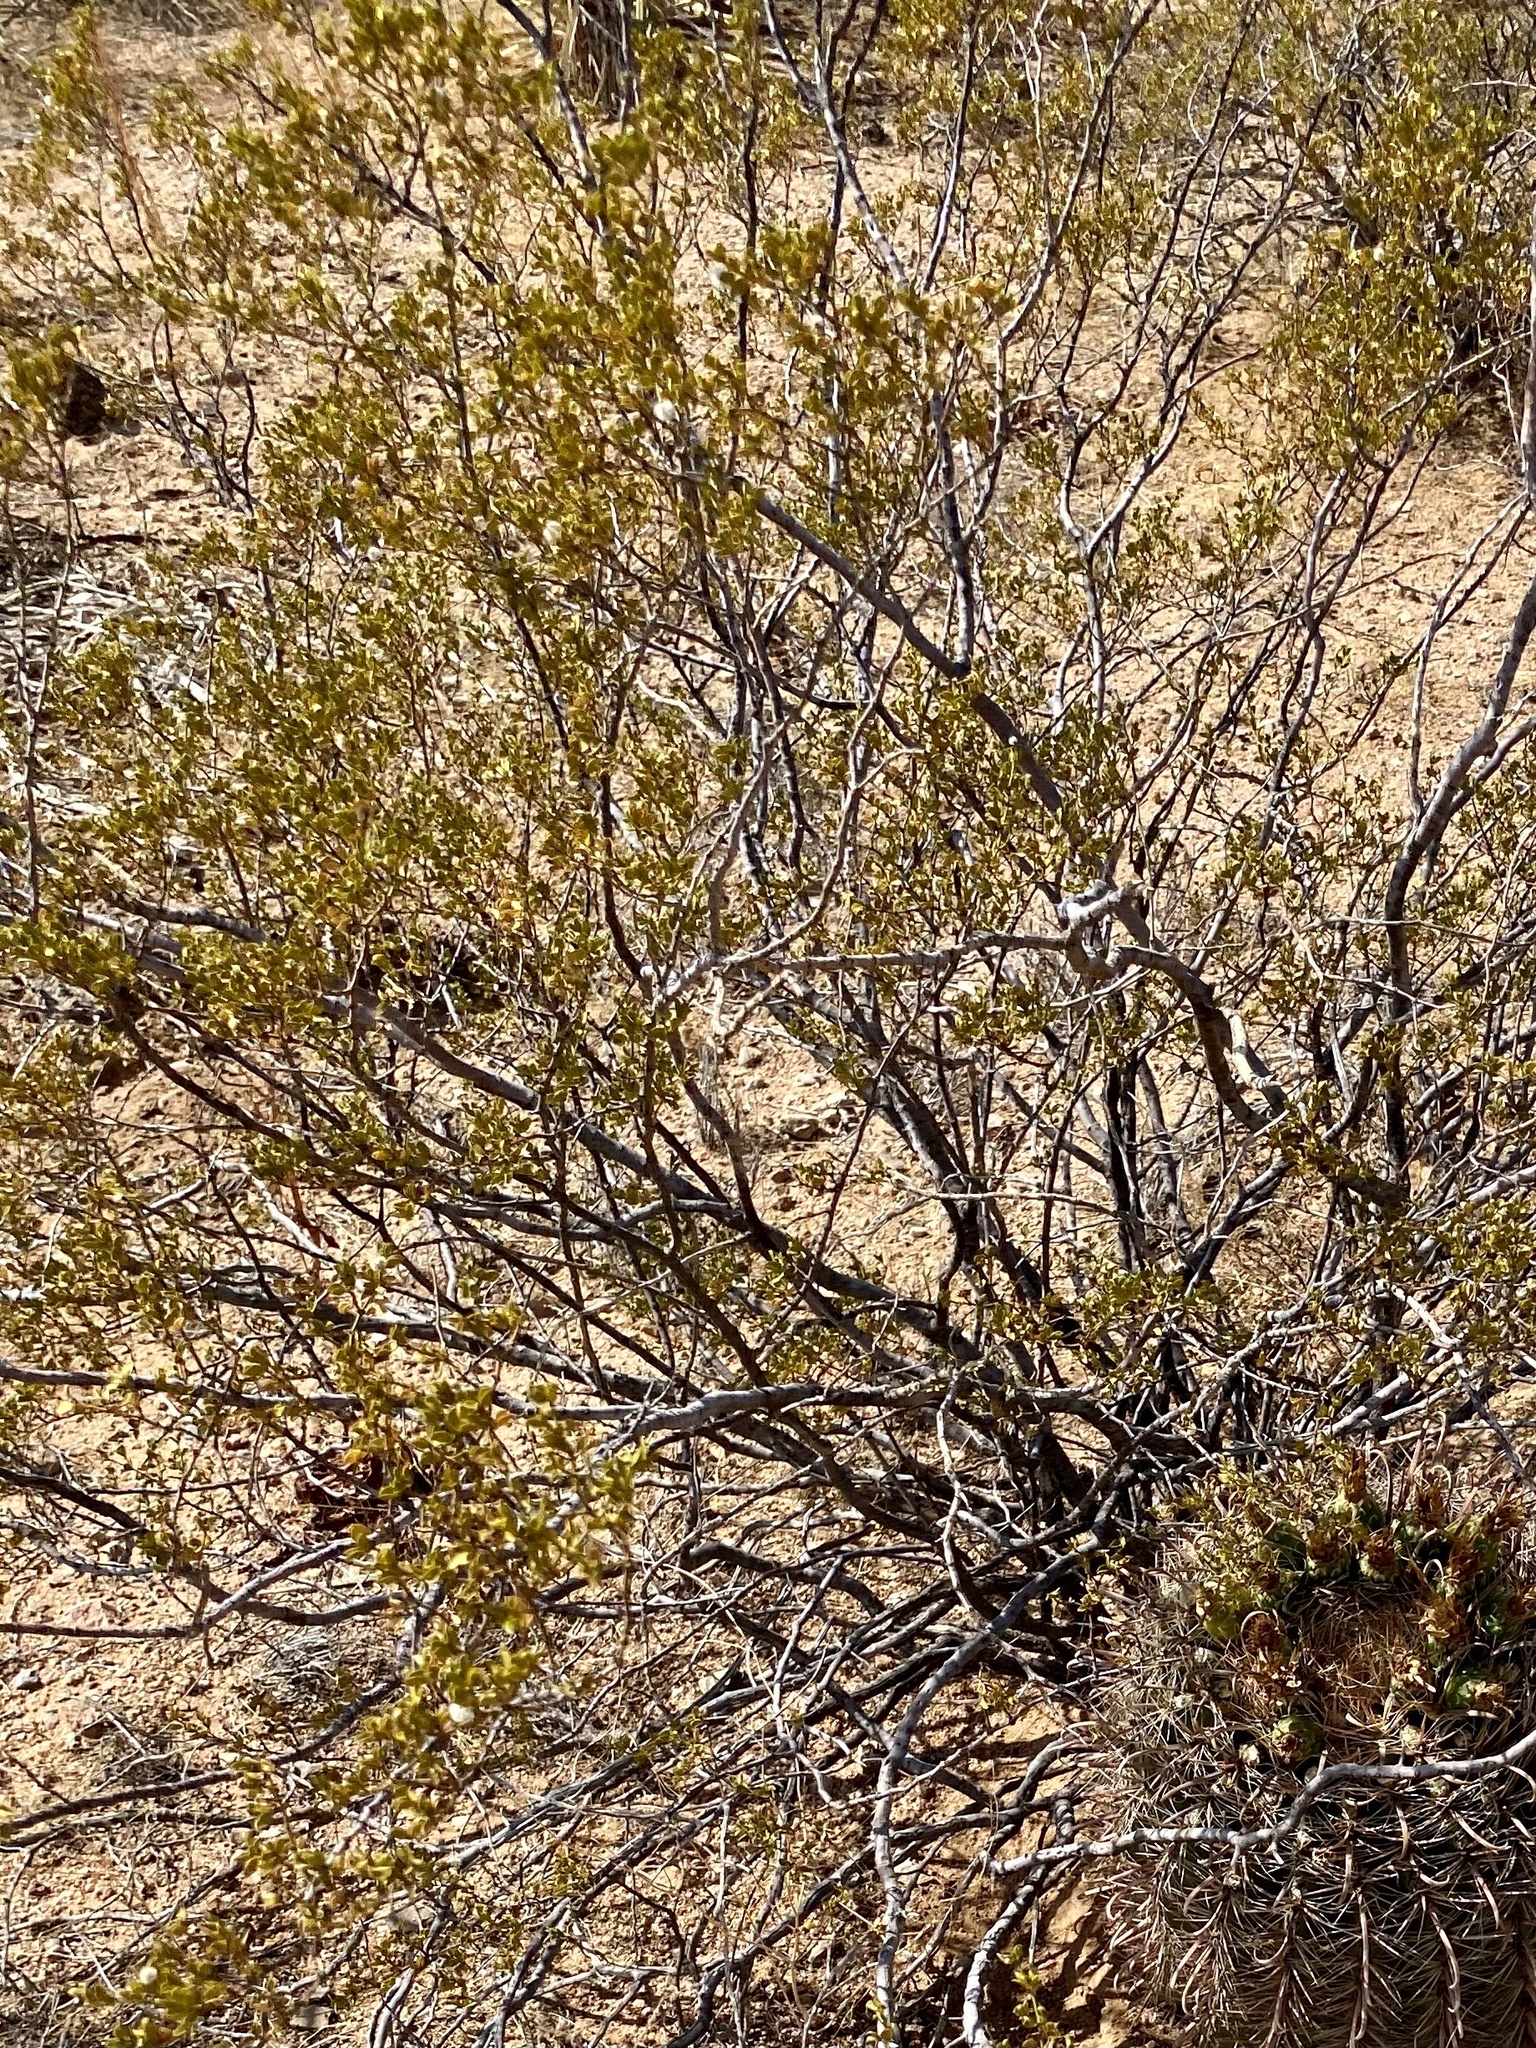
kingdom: Plantae
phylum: Tracheophyta
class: Magnoliopsida
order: Zygophyllales
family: Zygophyllaceae
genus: Larrea
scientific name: Larrea tridentata
